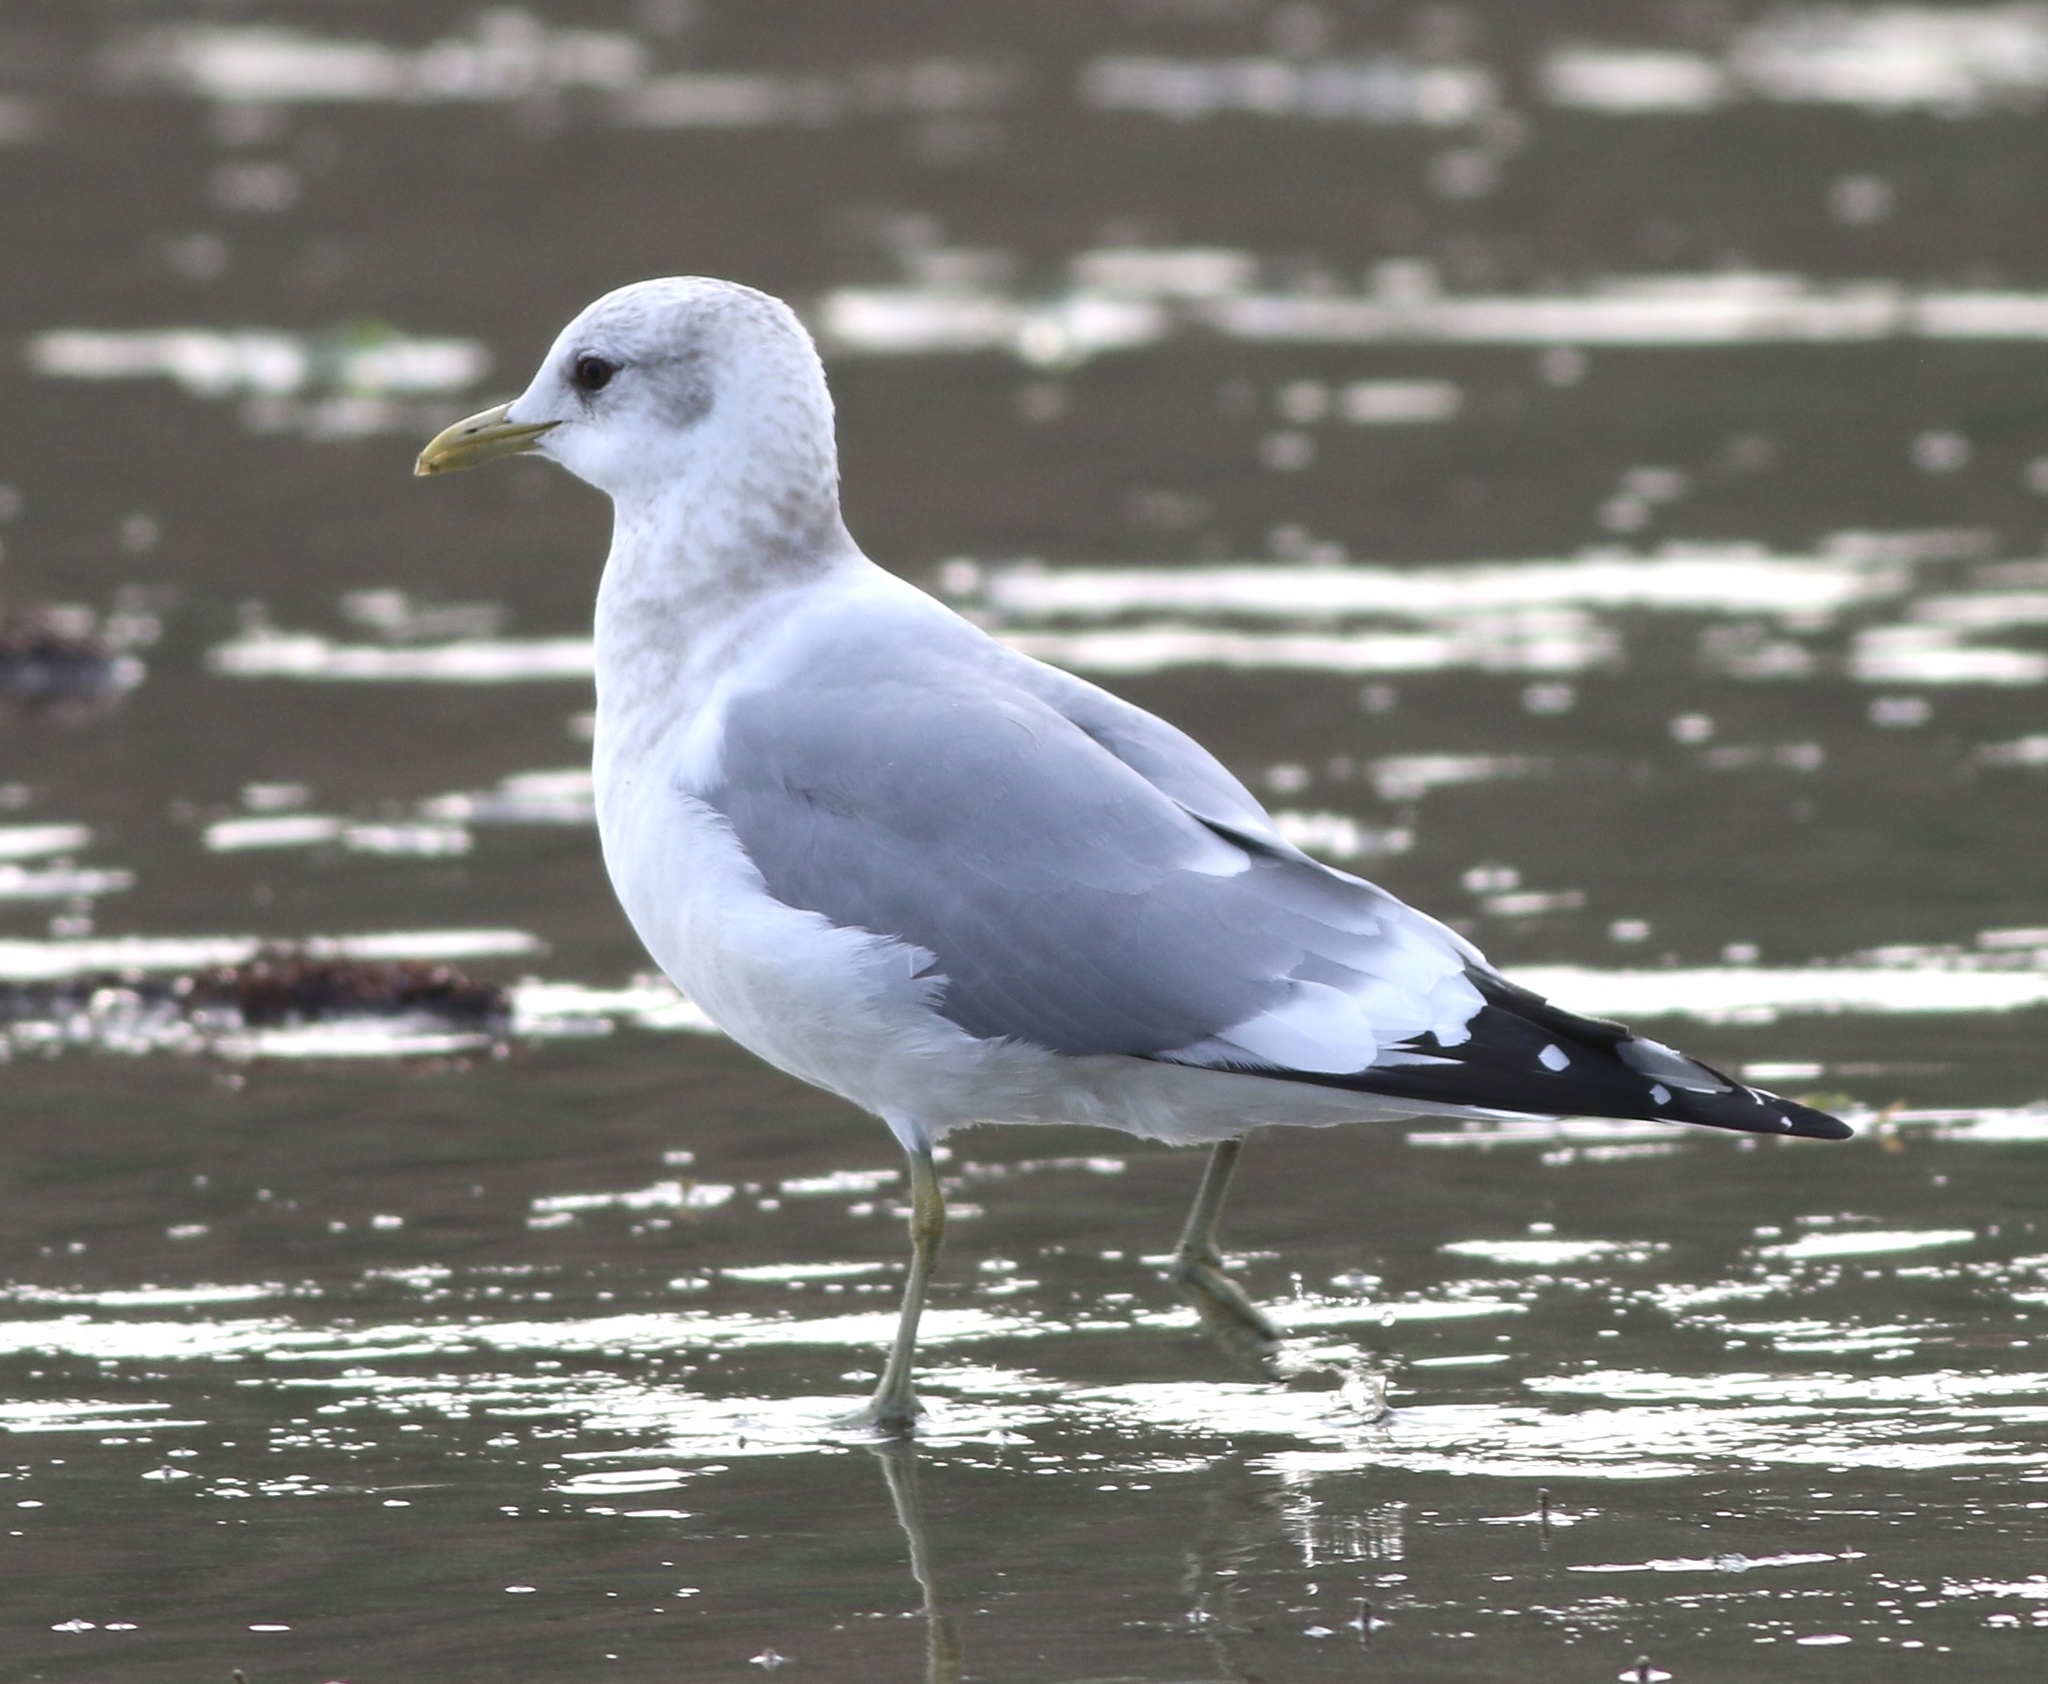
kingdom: Animalia
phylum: Chordata
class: Aves
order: Charadriiformes
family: Laridae
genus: Larus
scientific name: Larus brachyrhynchus
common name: Short-billed gull
